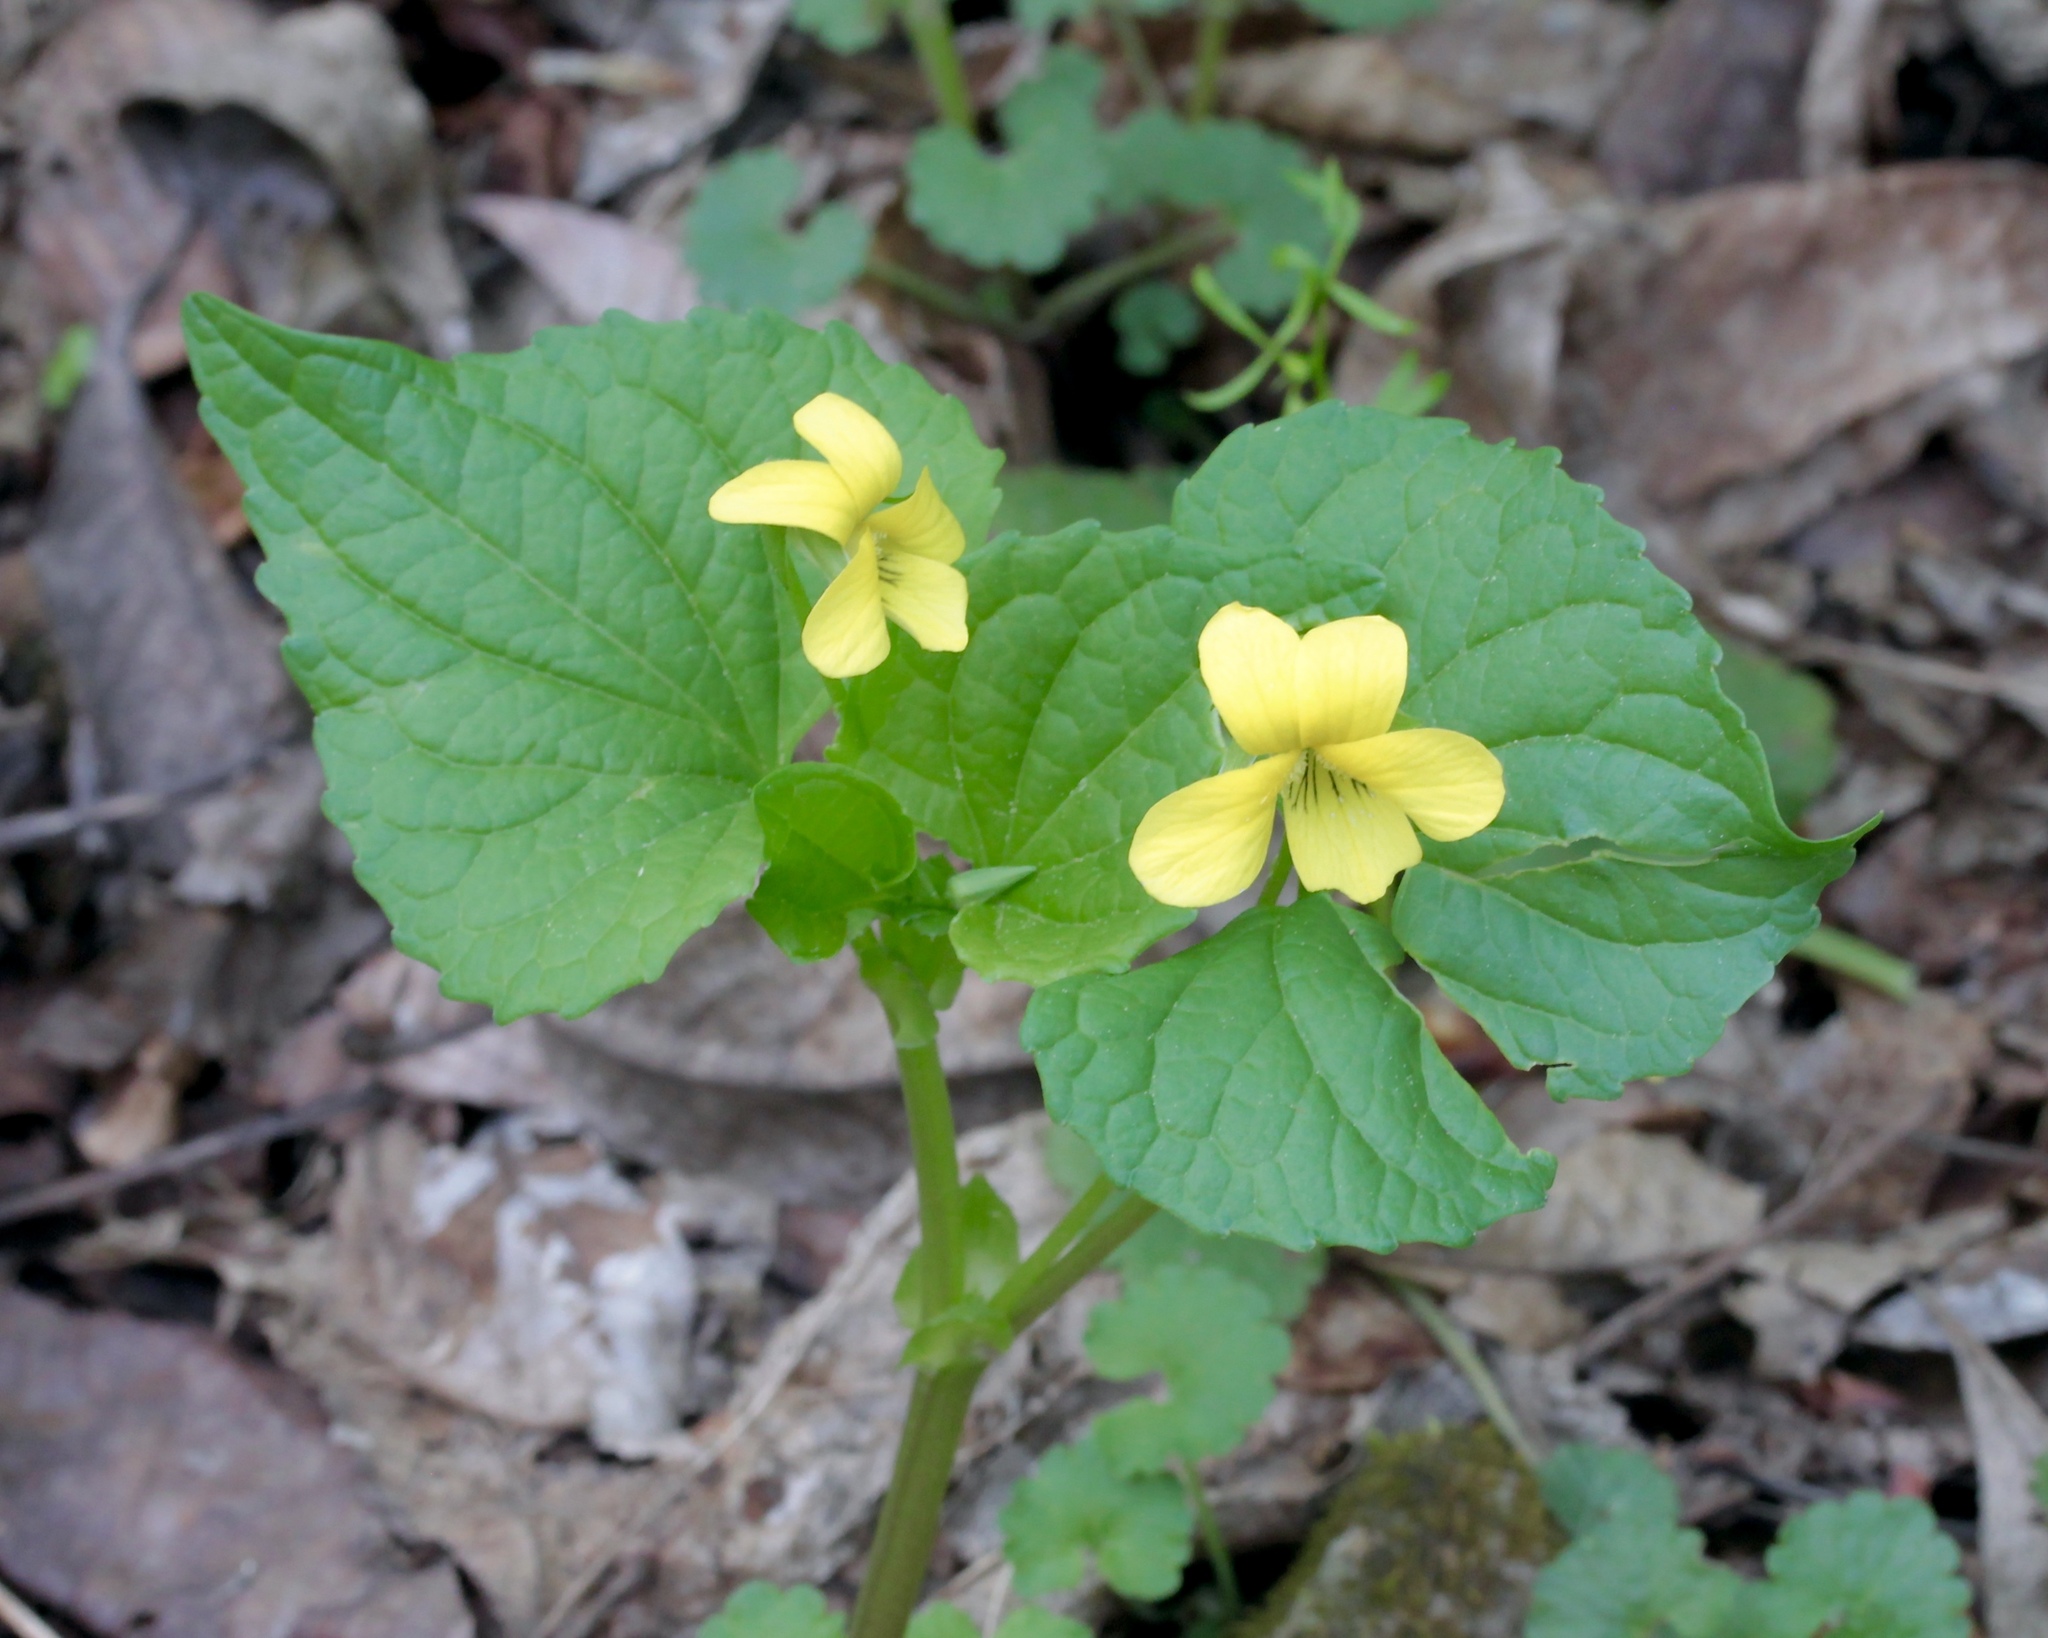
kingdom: Plantae
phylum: Tracheophyta
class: Magnoliopsida
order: Malpighiales
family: Violaceae
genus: Viola
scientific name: Viola eriocarpa
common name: Smooth yellow violet
